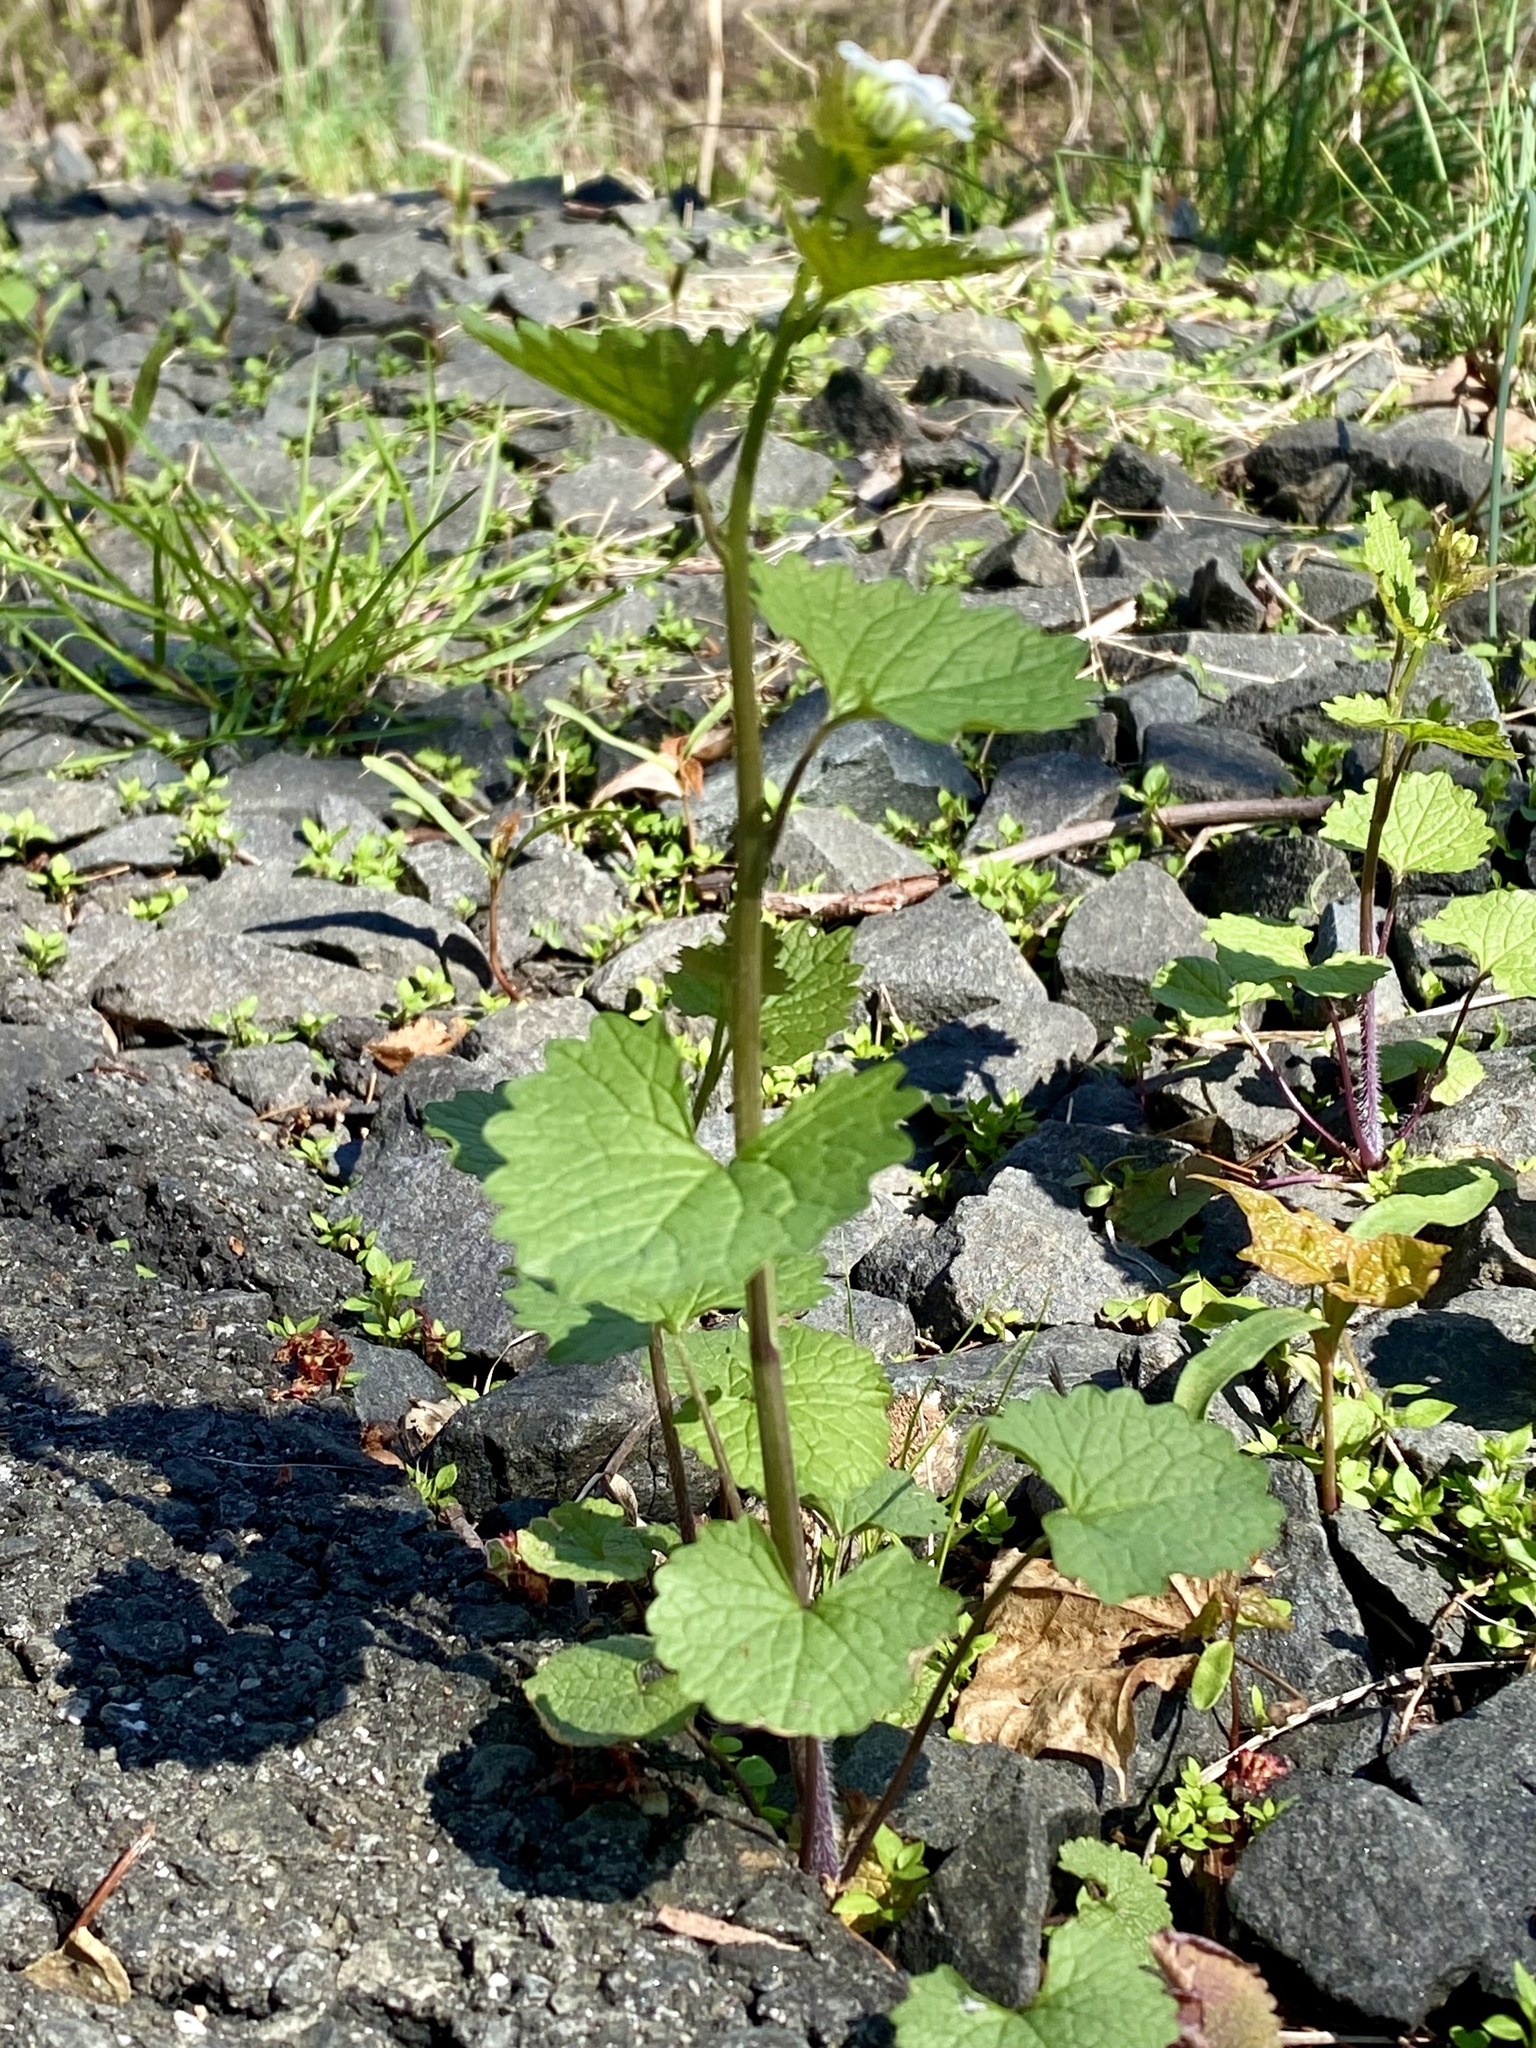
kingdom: Plantae
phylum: Tracheophyta
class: Magnoliopsida
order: Brassicales
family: Brassicaceae
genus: Alliaria
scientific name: Alliaria petiolata
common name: Garlic mustard
